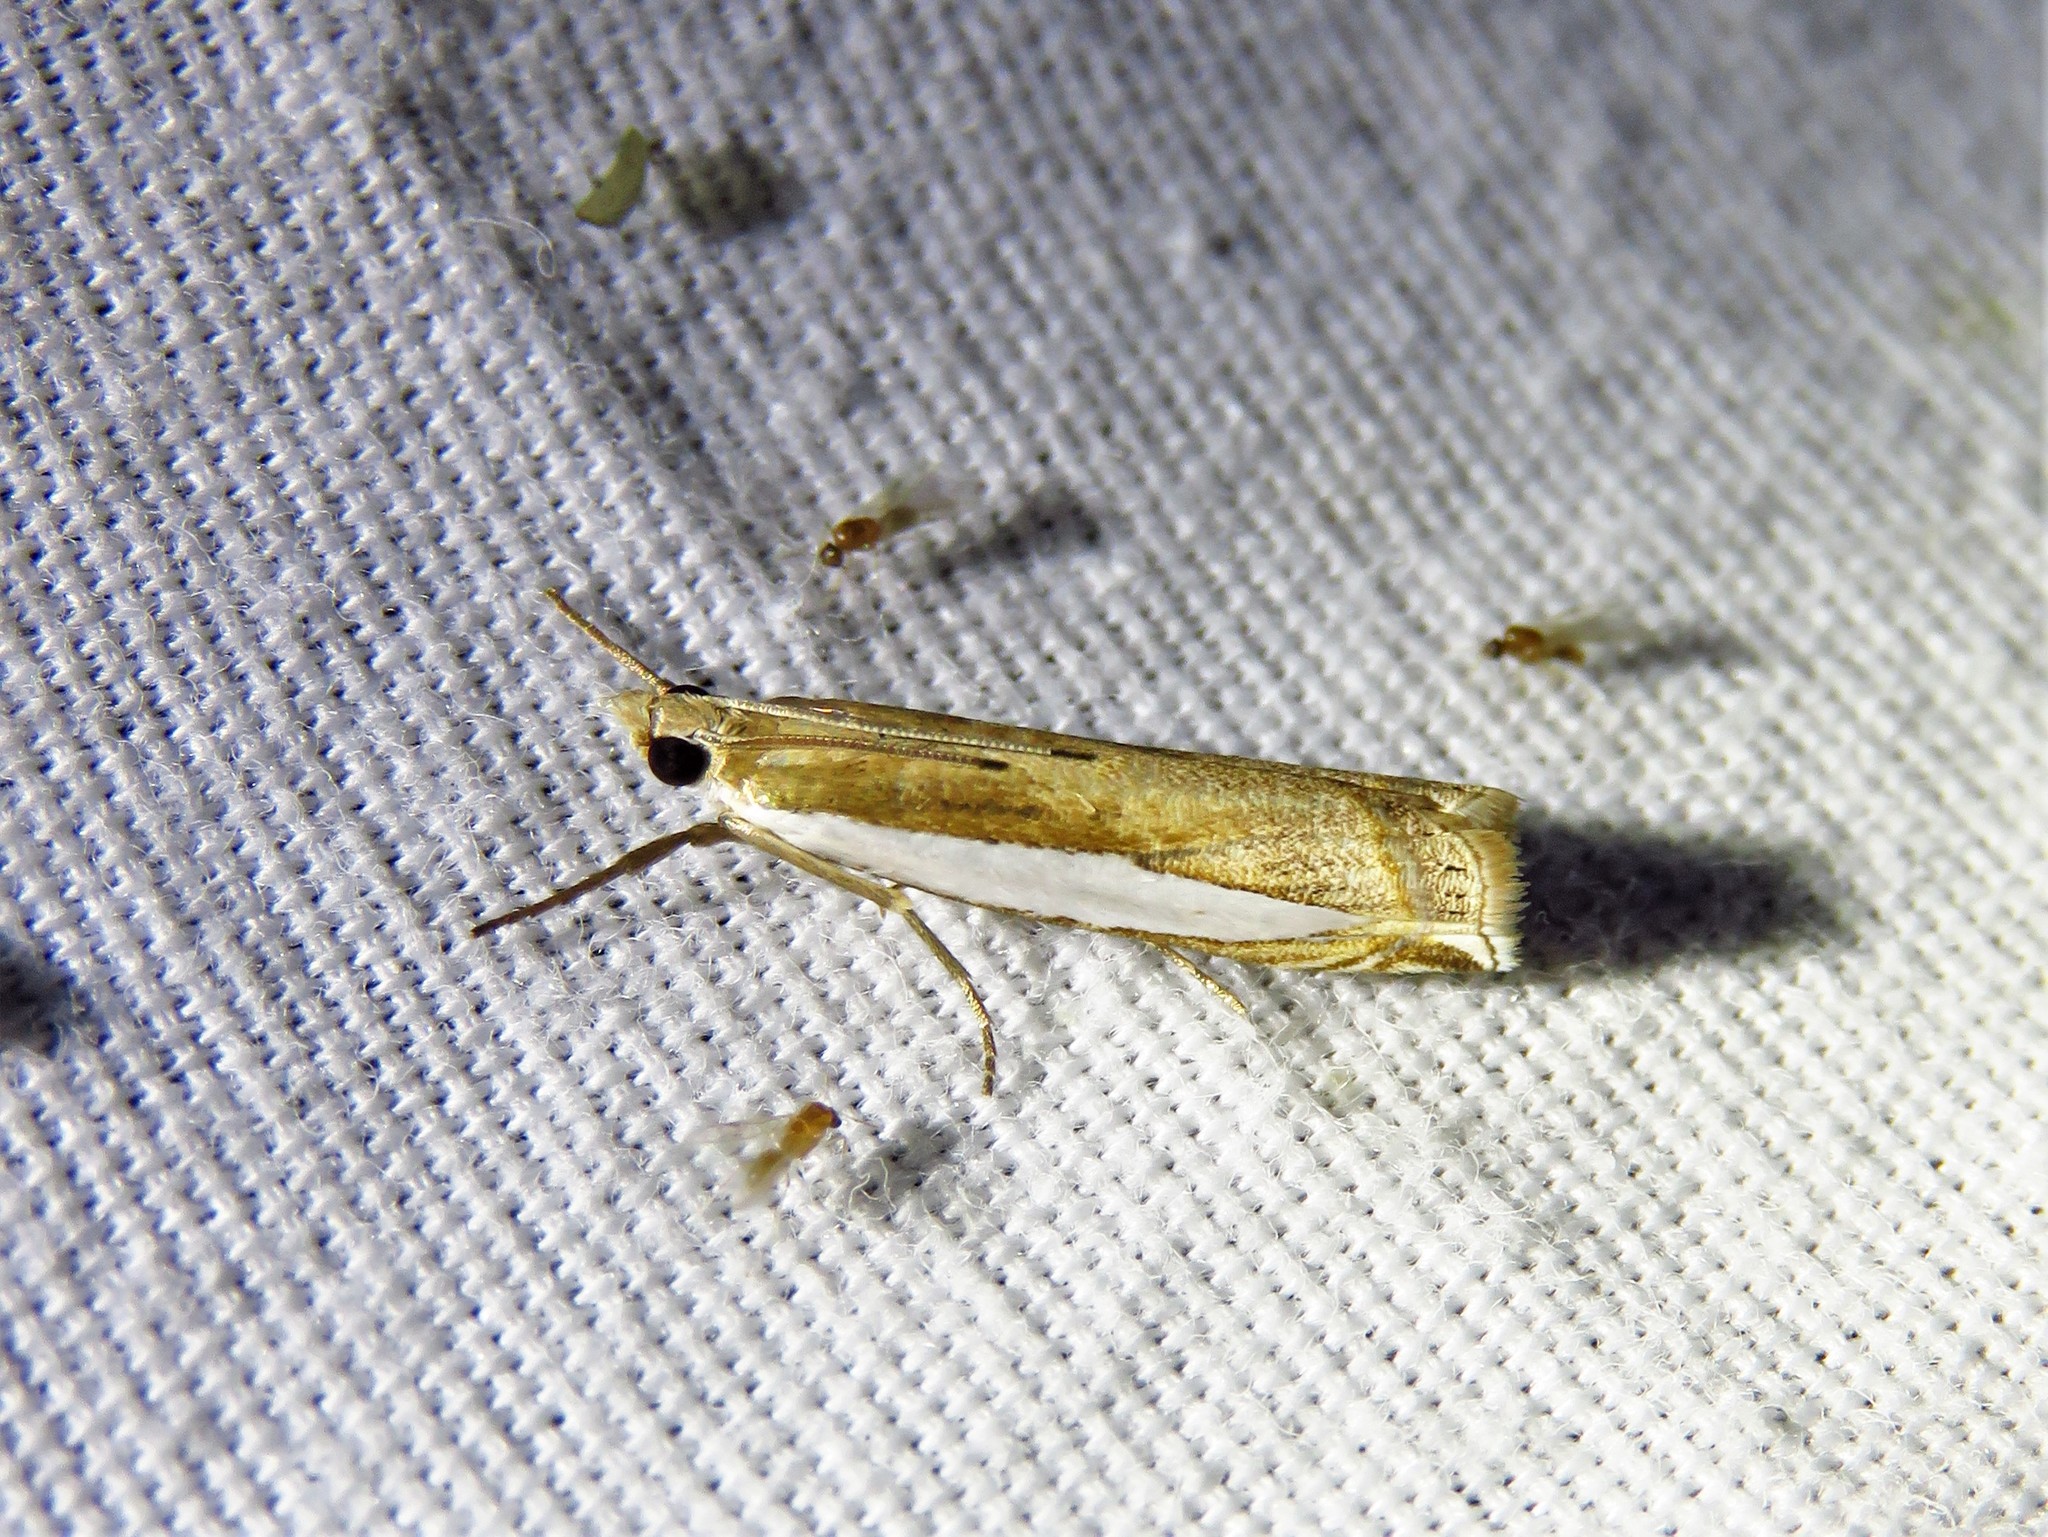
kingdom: Animalia
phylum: Arthropoda
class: Insecta
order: Lepidoptera
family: Crambidae
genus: Crambus
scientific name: Crambus leachellus
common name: Leach's grass-veneer
